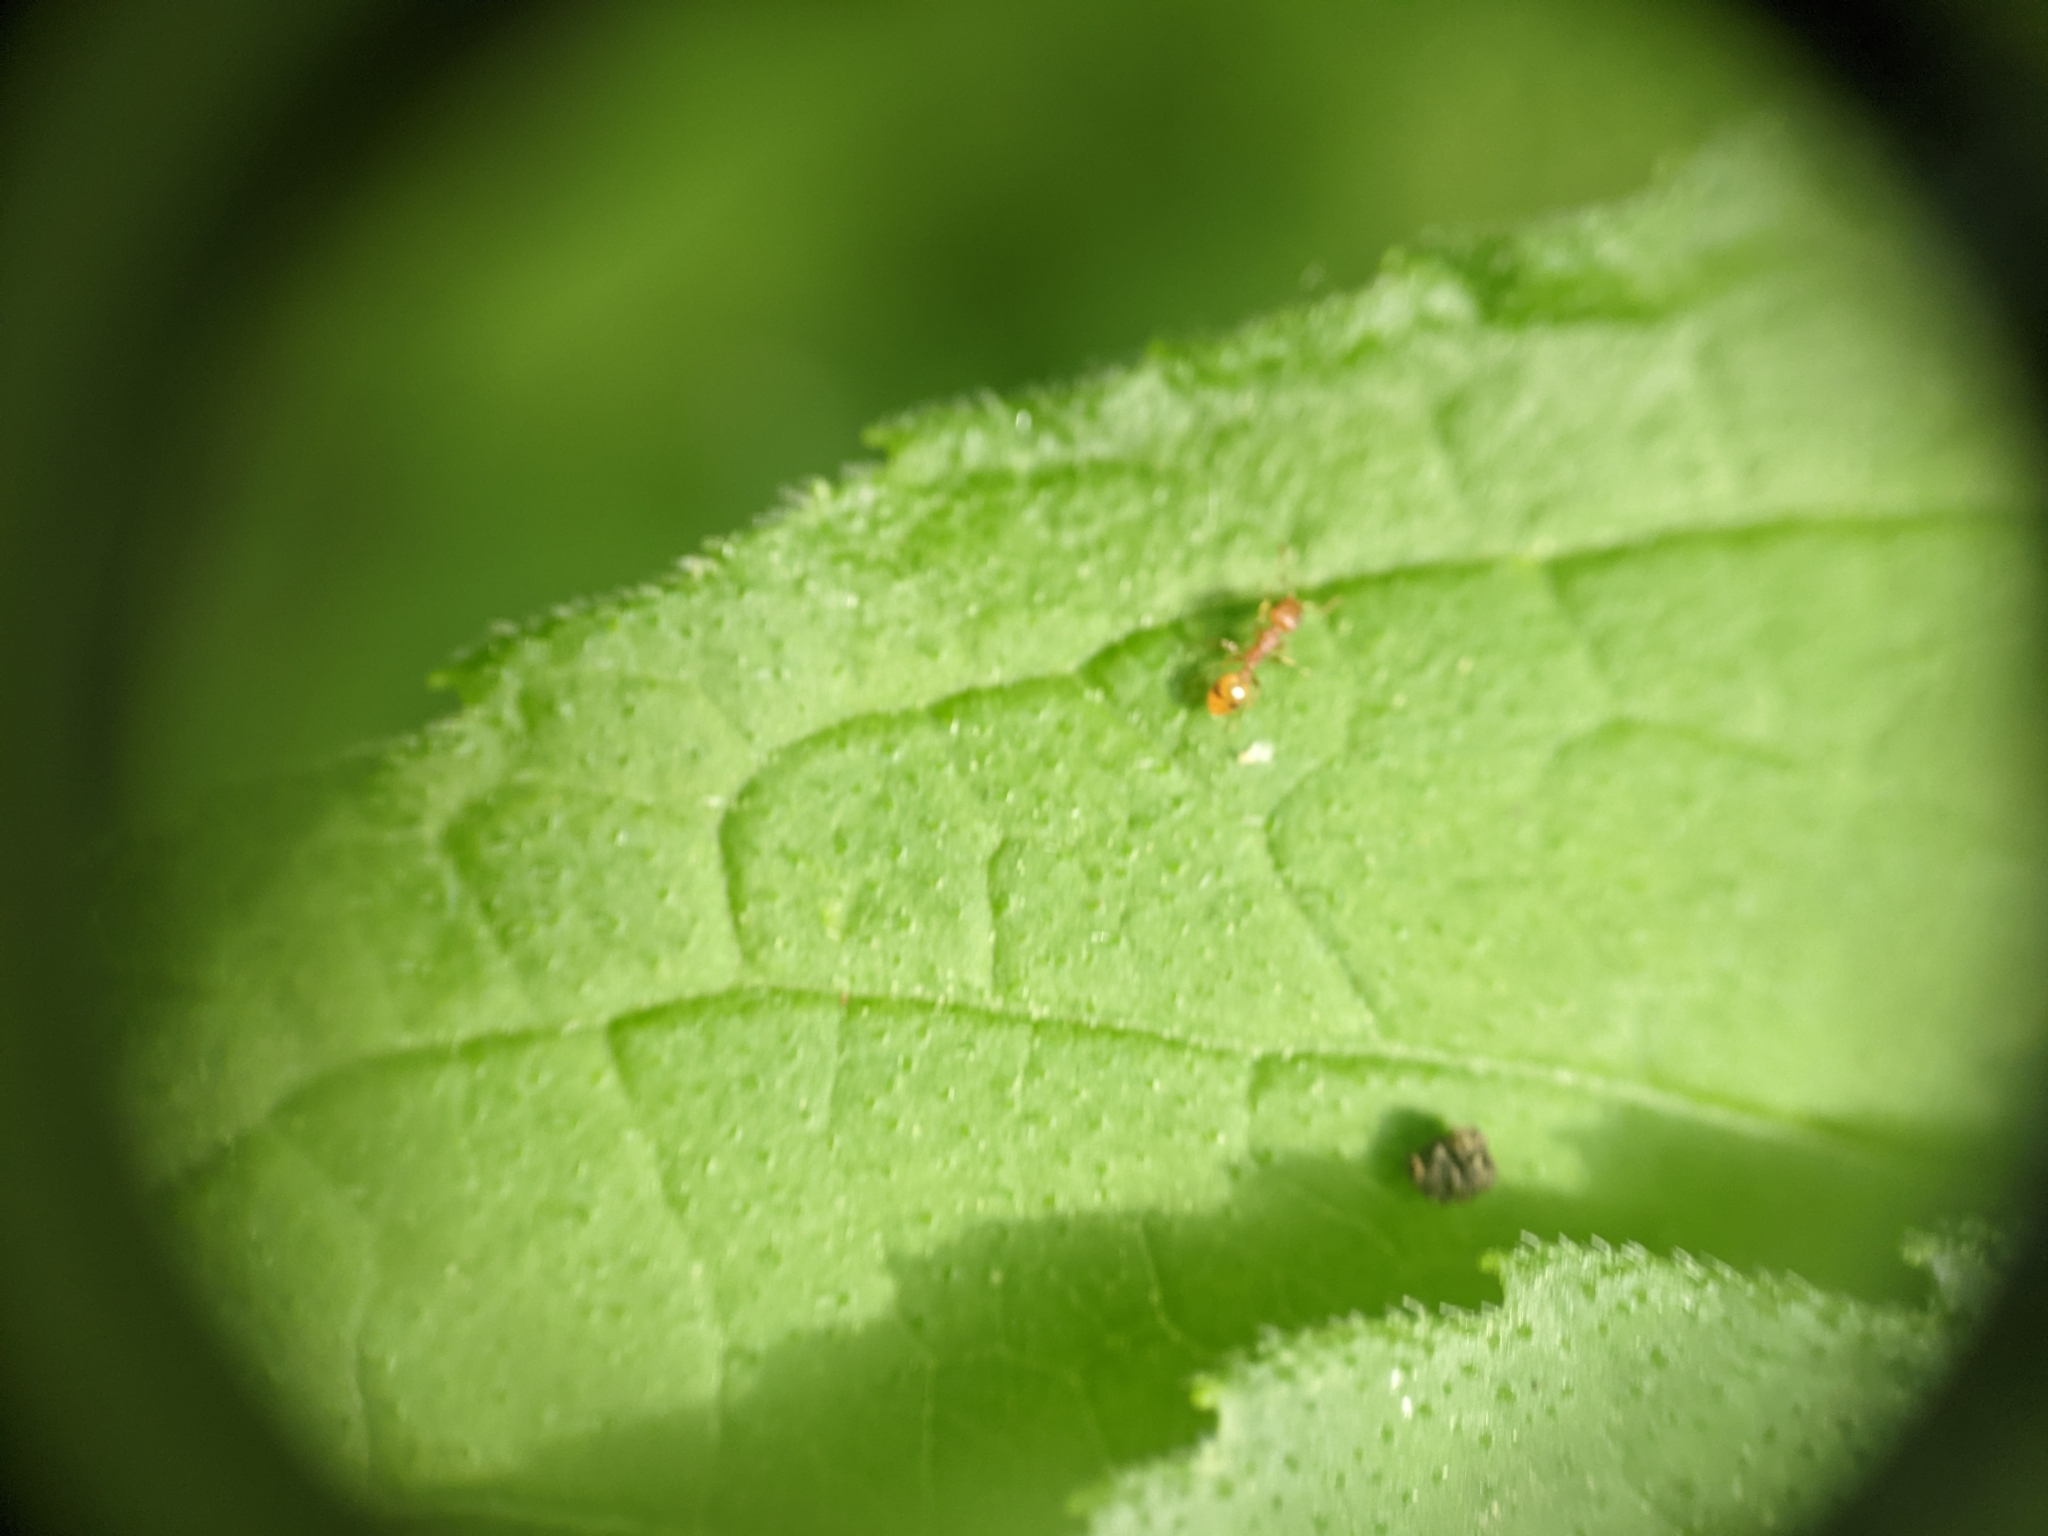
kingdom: Animalia
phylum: Arthropoda
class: Insecta
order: Hymenoptera
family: Formicidae
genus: Temnothorax
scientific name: Temnothorax curvispinosus
